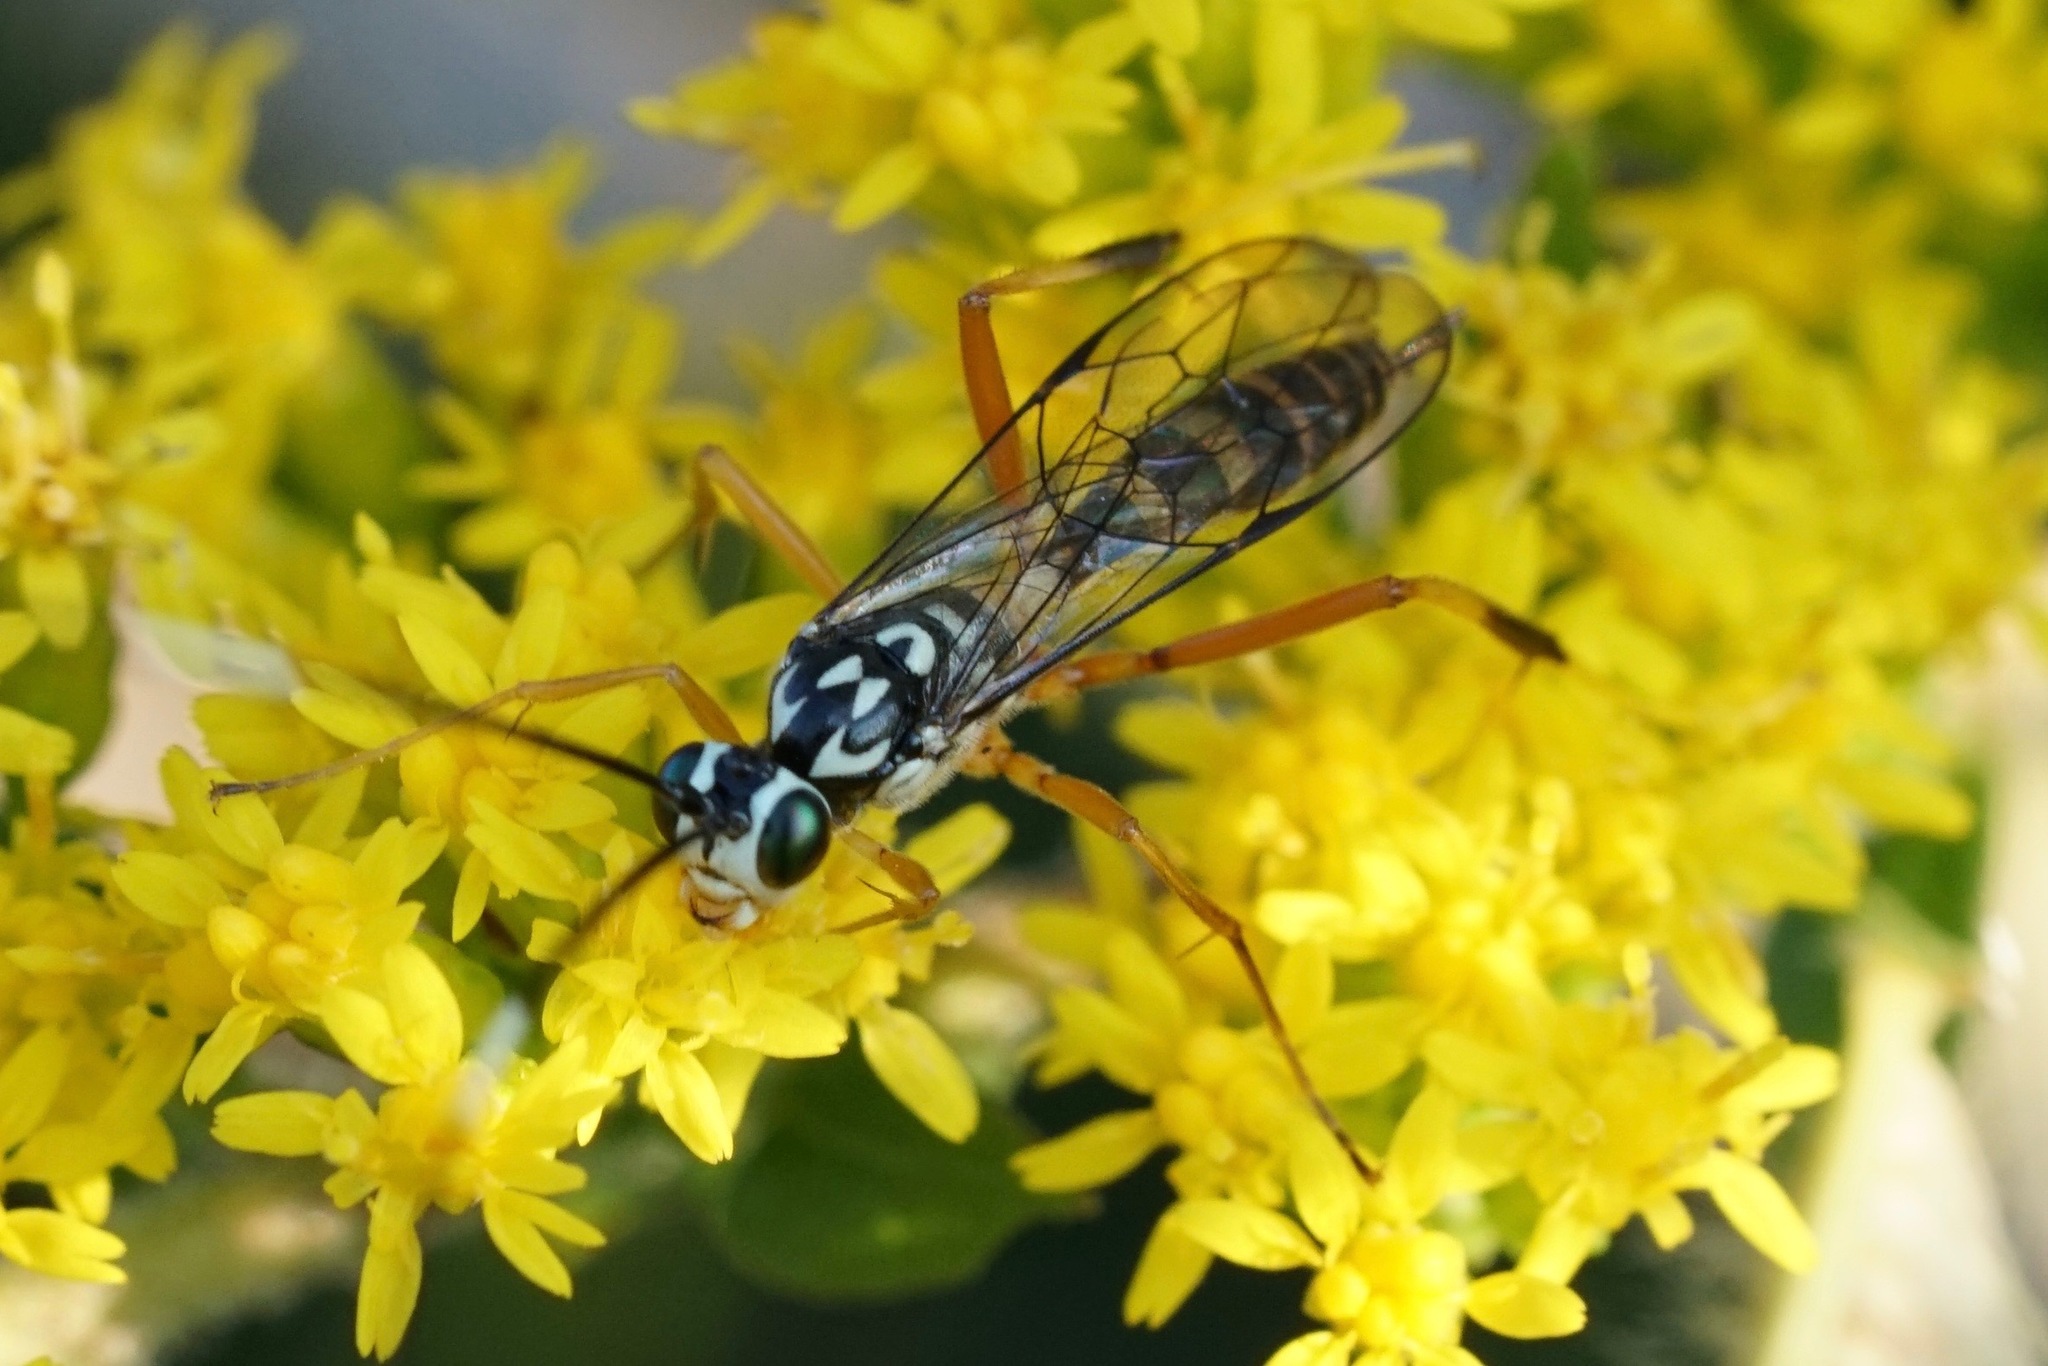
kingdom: Animalia
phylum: Arthropoda
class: Insecta
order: Hymenoptera
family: Ichneumonidae
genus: Diradops
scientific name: Diradops bethunei
